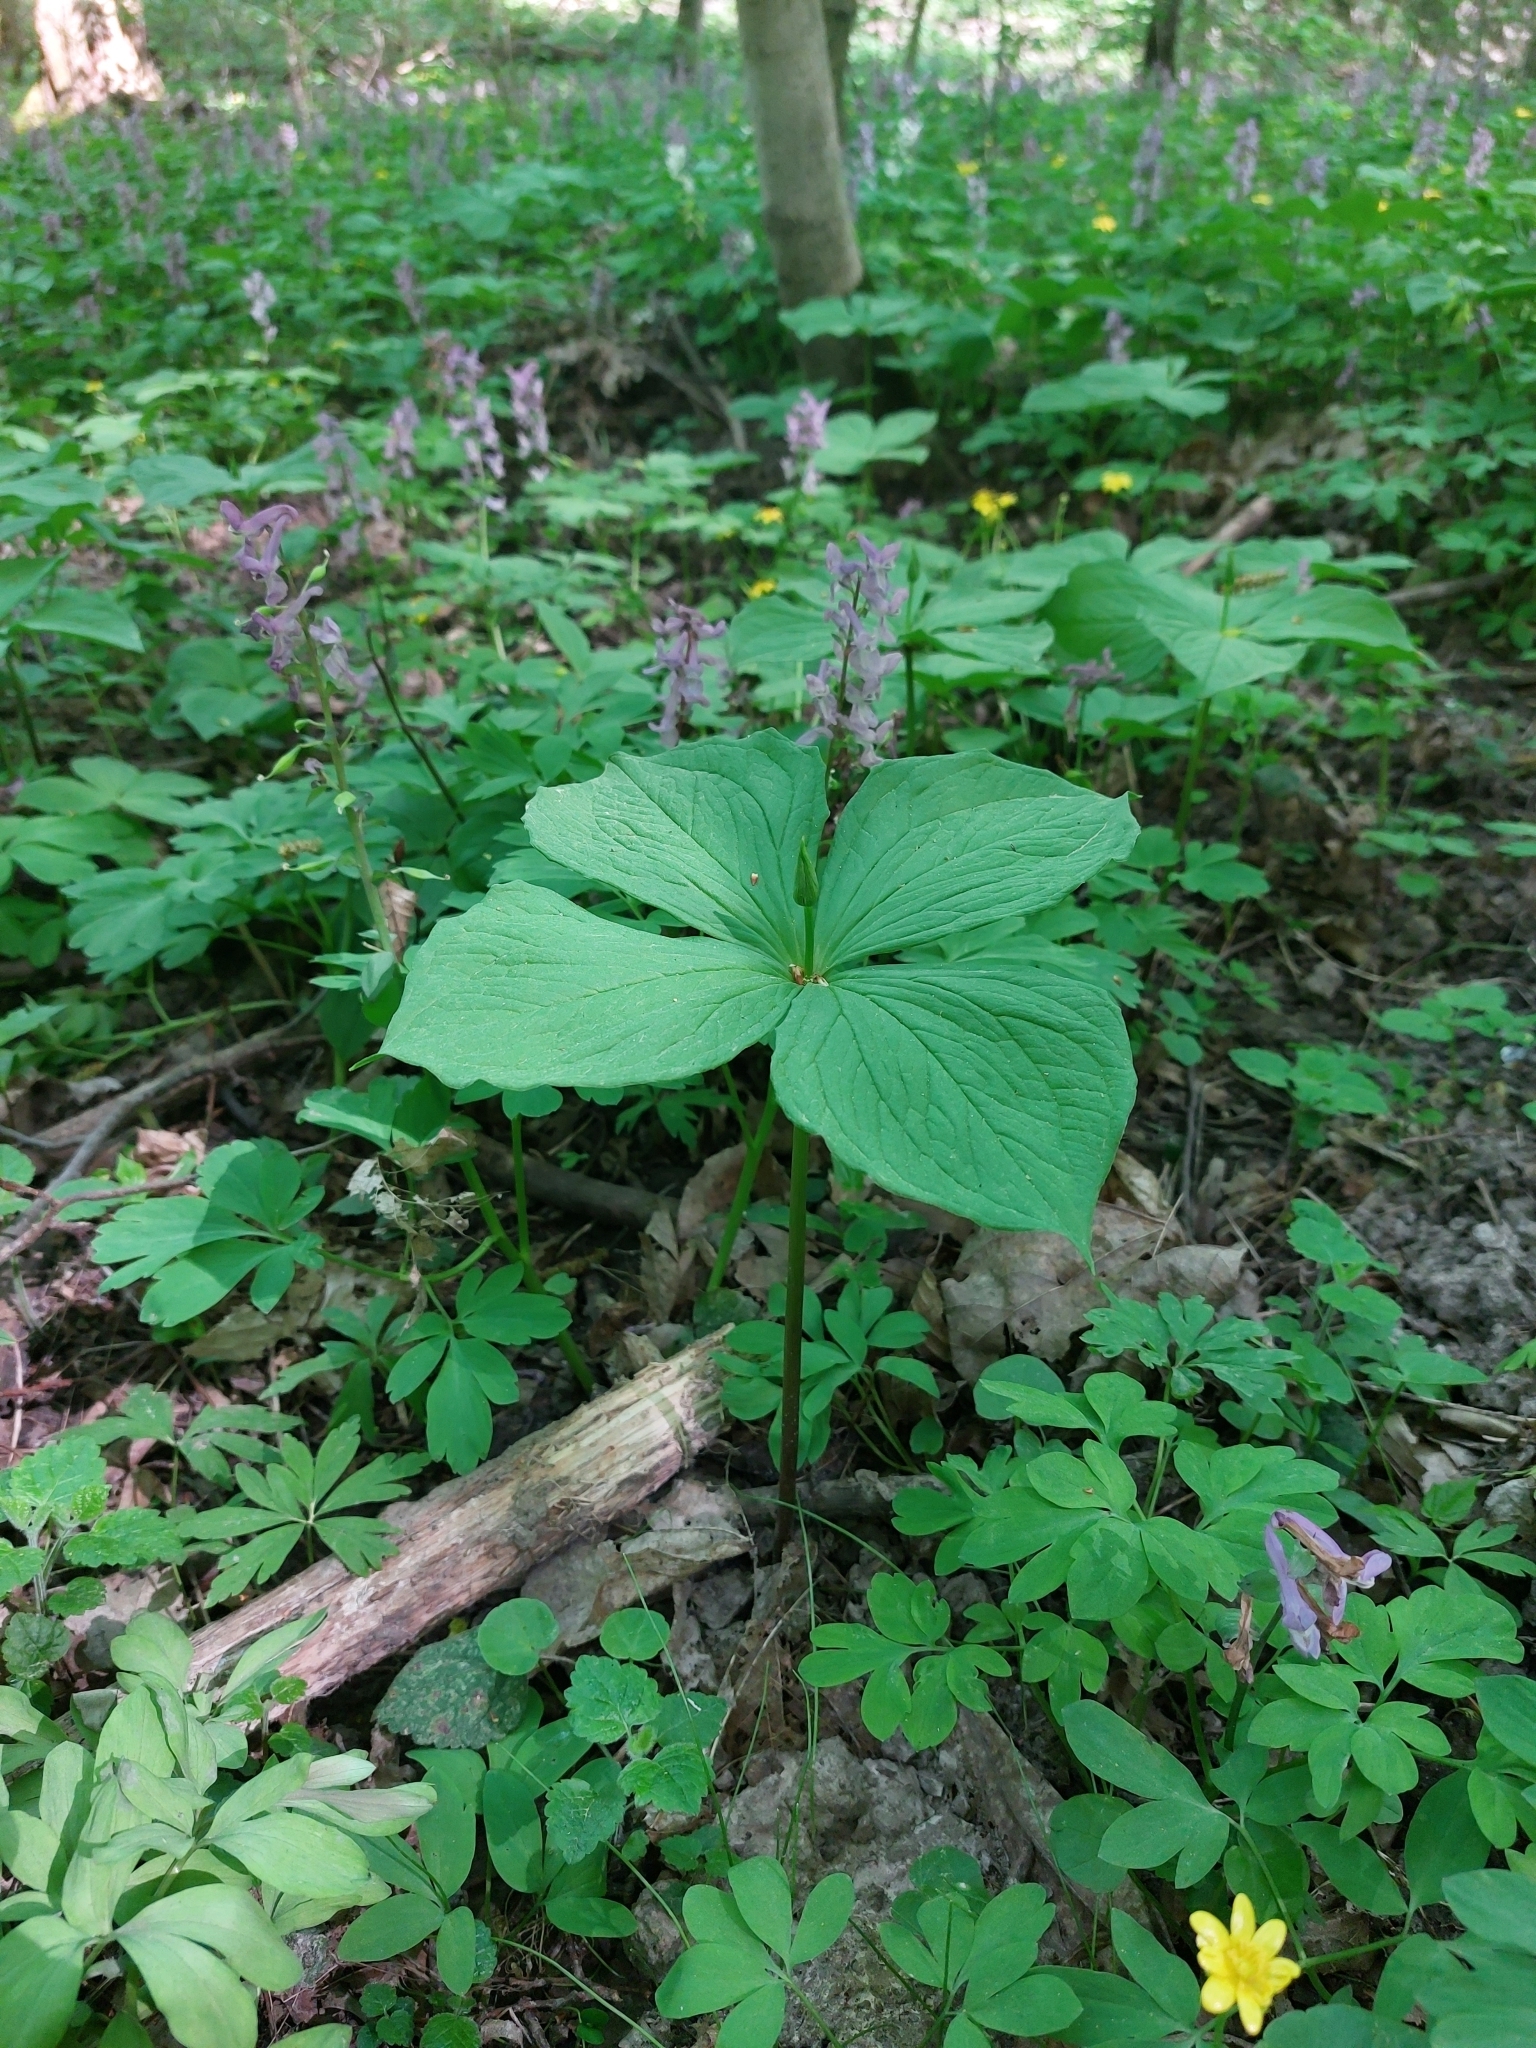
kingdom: Plantae
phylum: Tracheophyta
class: Liliopsida
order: Liliales
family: Melanthiaceae
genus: Paris
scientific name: Paris quadrifolia
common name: Herb-paris
